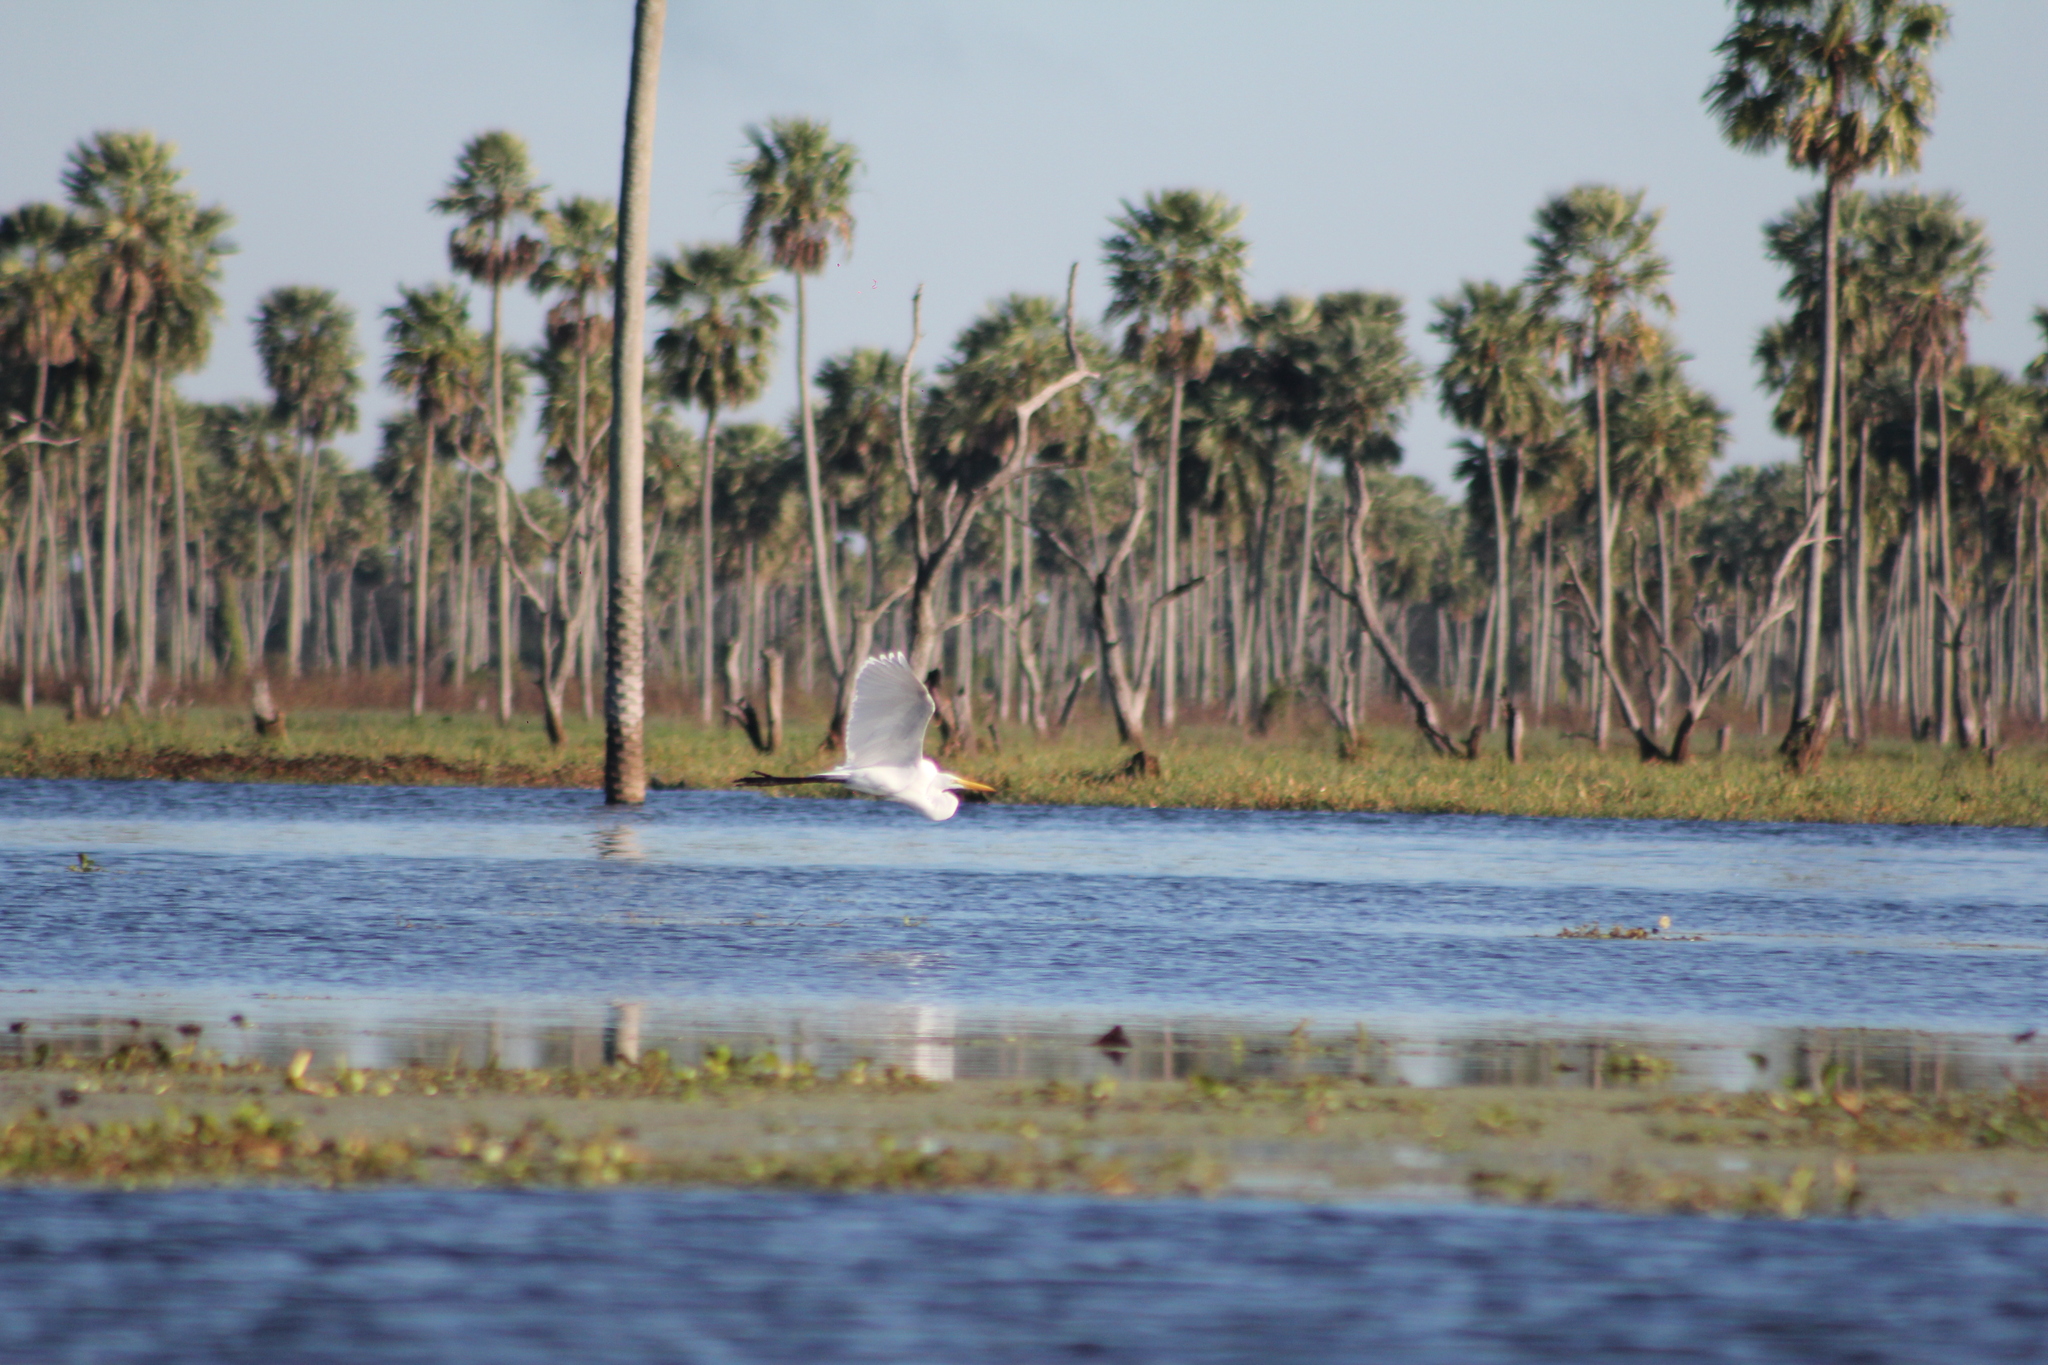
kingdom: Animalia
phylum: Chordata
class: Aves
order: Pelecaniformes
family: Ardeidae
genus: Ardea
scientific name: Ardea alba
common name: Great egret
